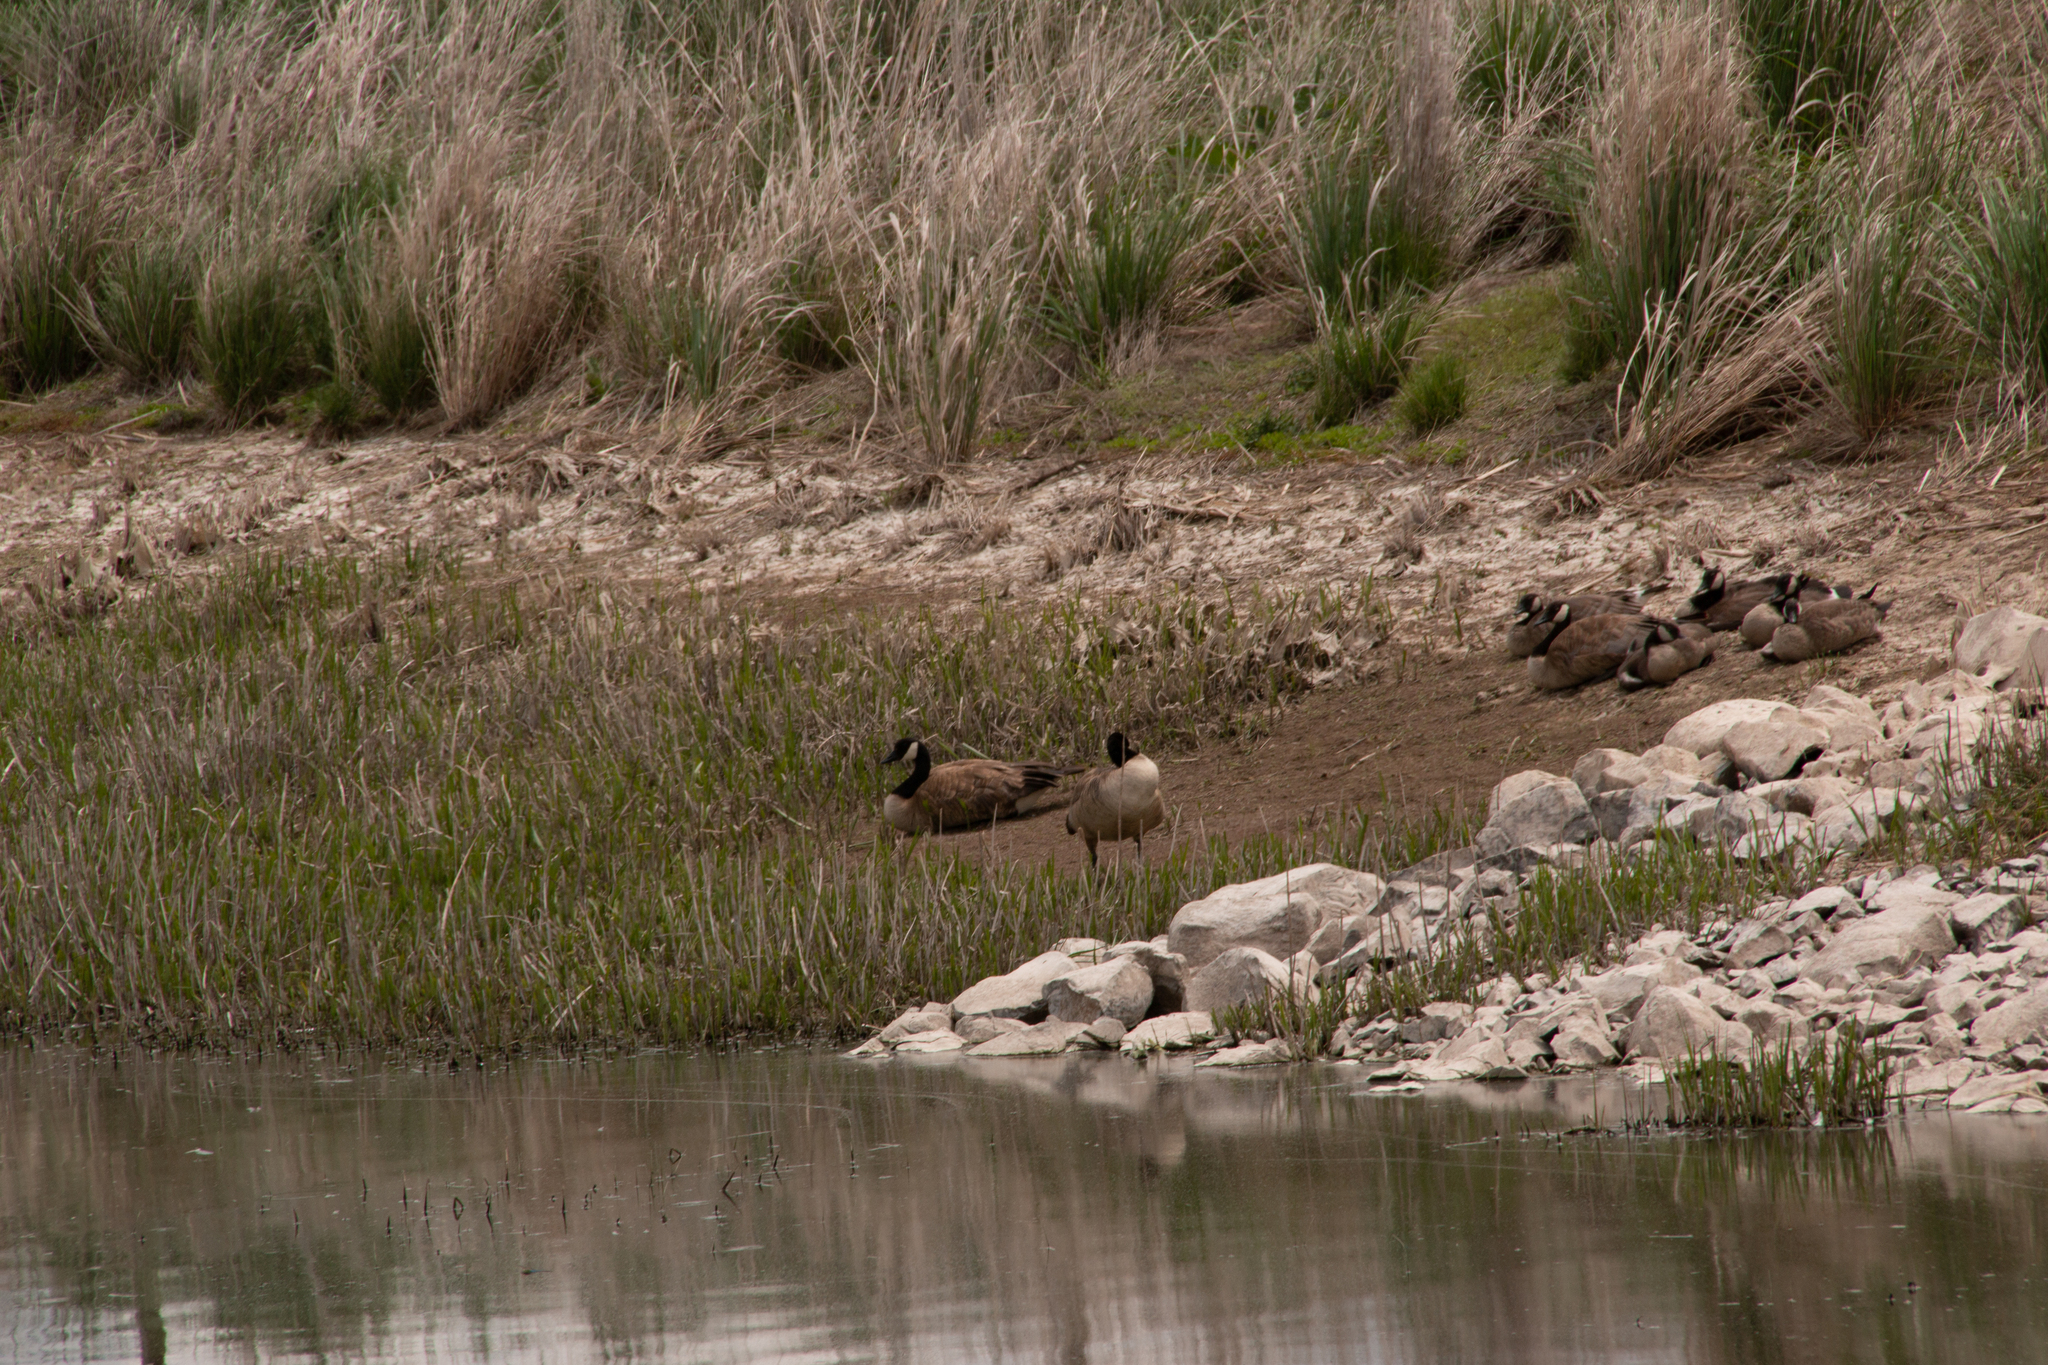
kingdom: Animalia
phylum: Chordata
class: Aves
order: Anseriformes
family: Anatidae
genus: Branta
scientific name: Branta canadensis
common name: Canada goose
